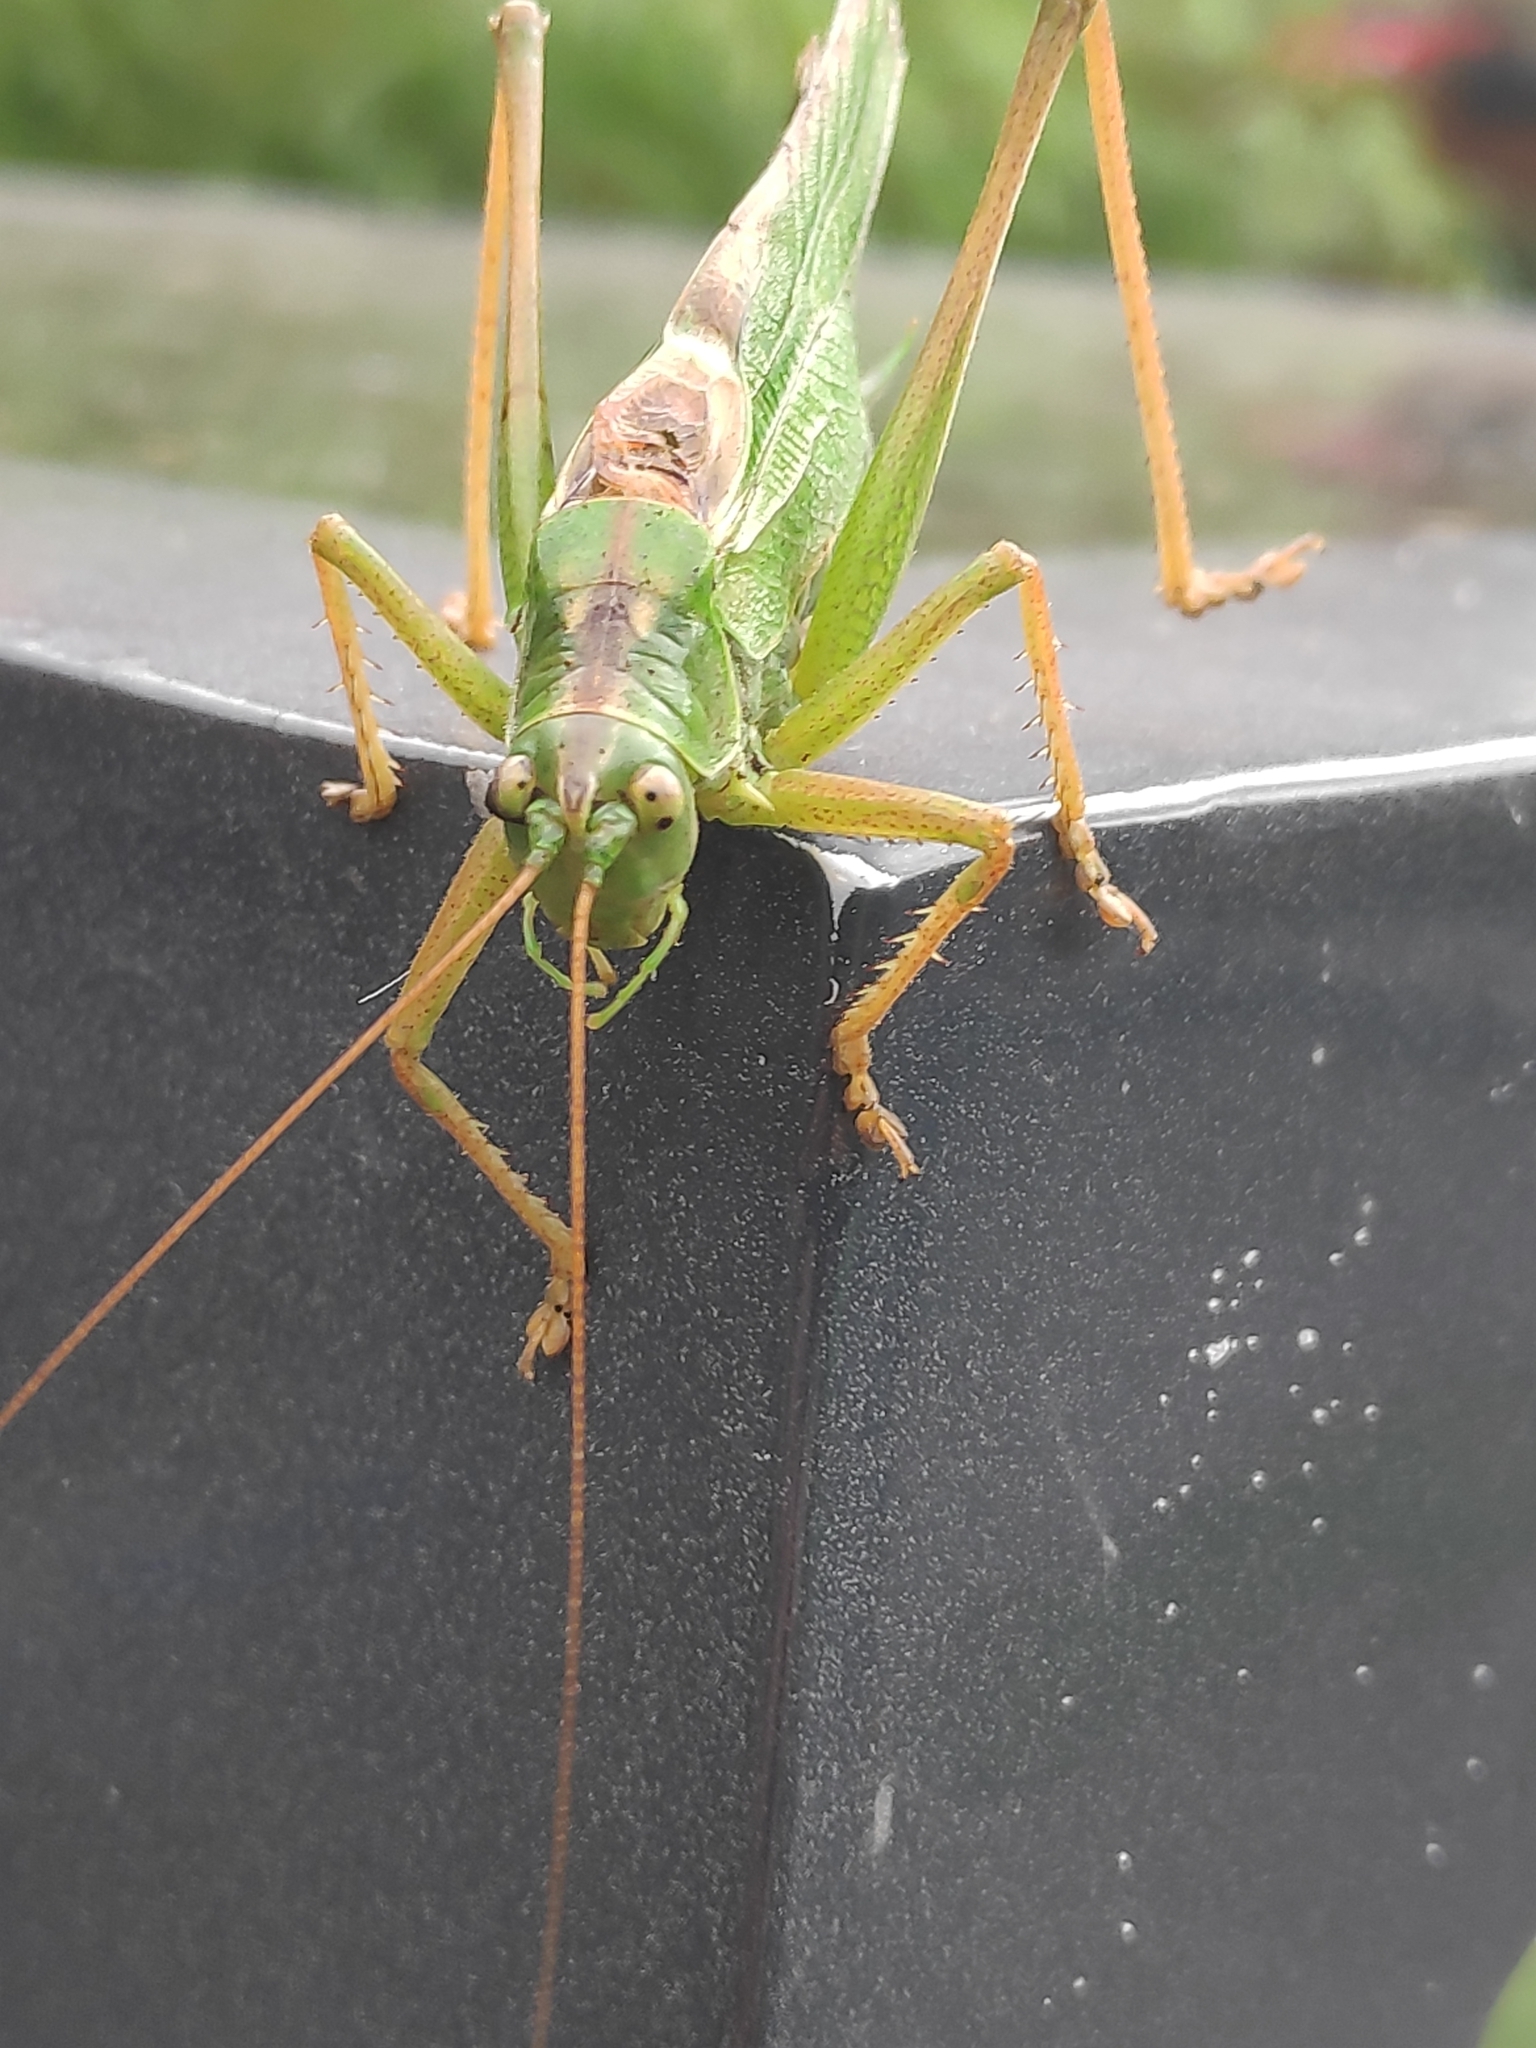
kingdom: Animalia
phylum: Arthropoda
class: Insecta
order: Orthoptera
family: Tettigoniidae
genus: Tettigonia
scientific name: Tettigonia viridissima
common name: Great green bush-cricket
